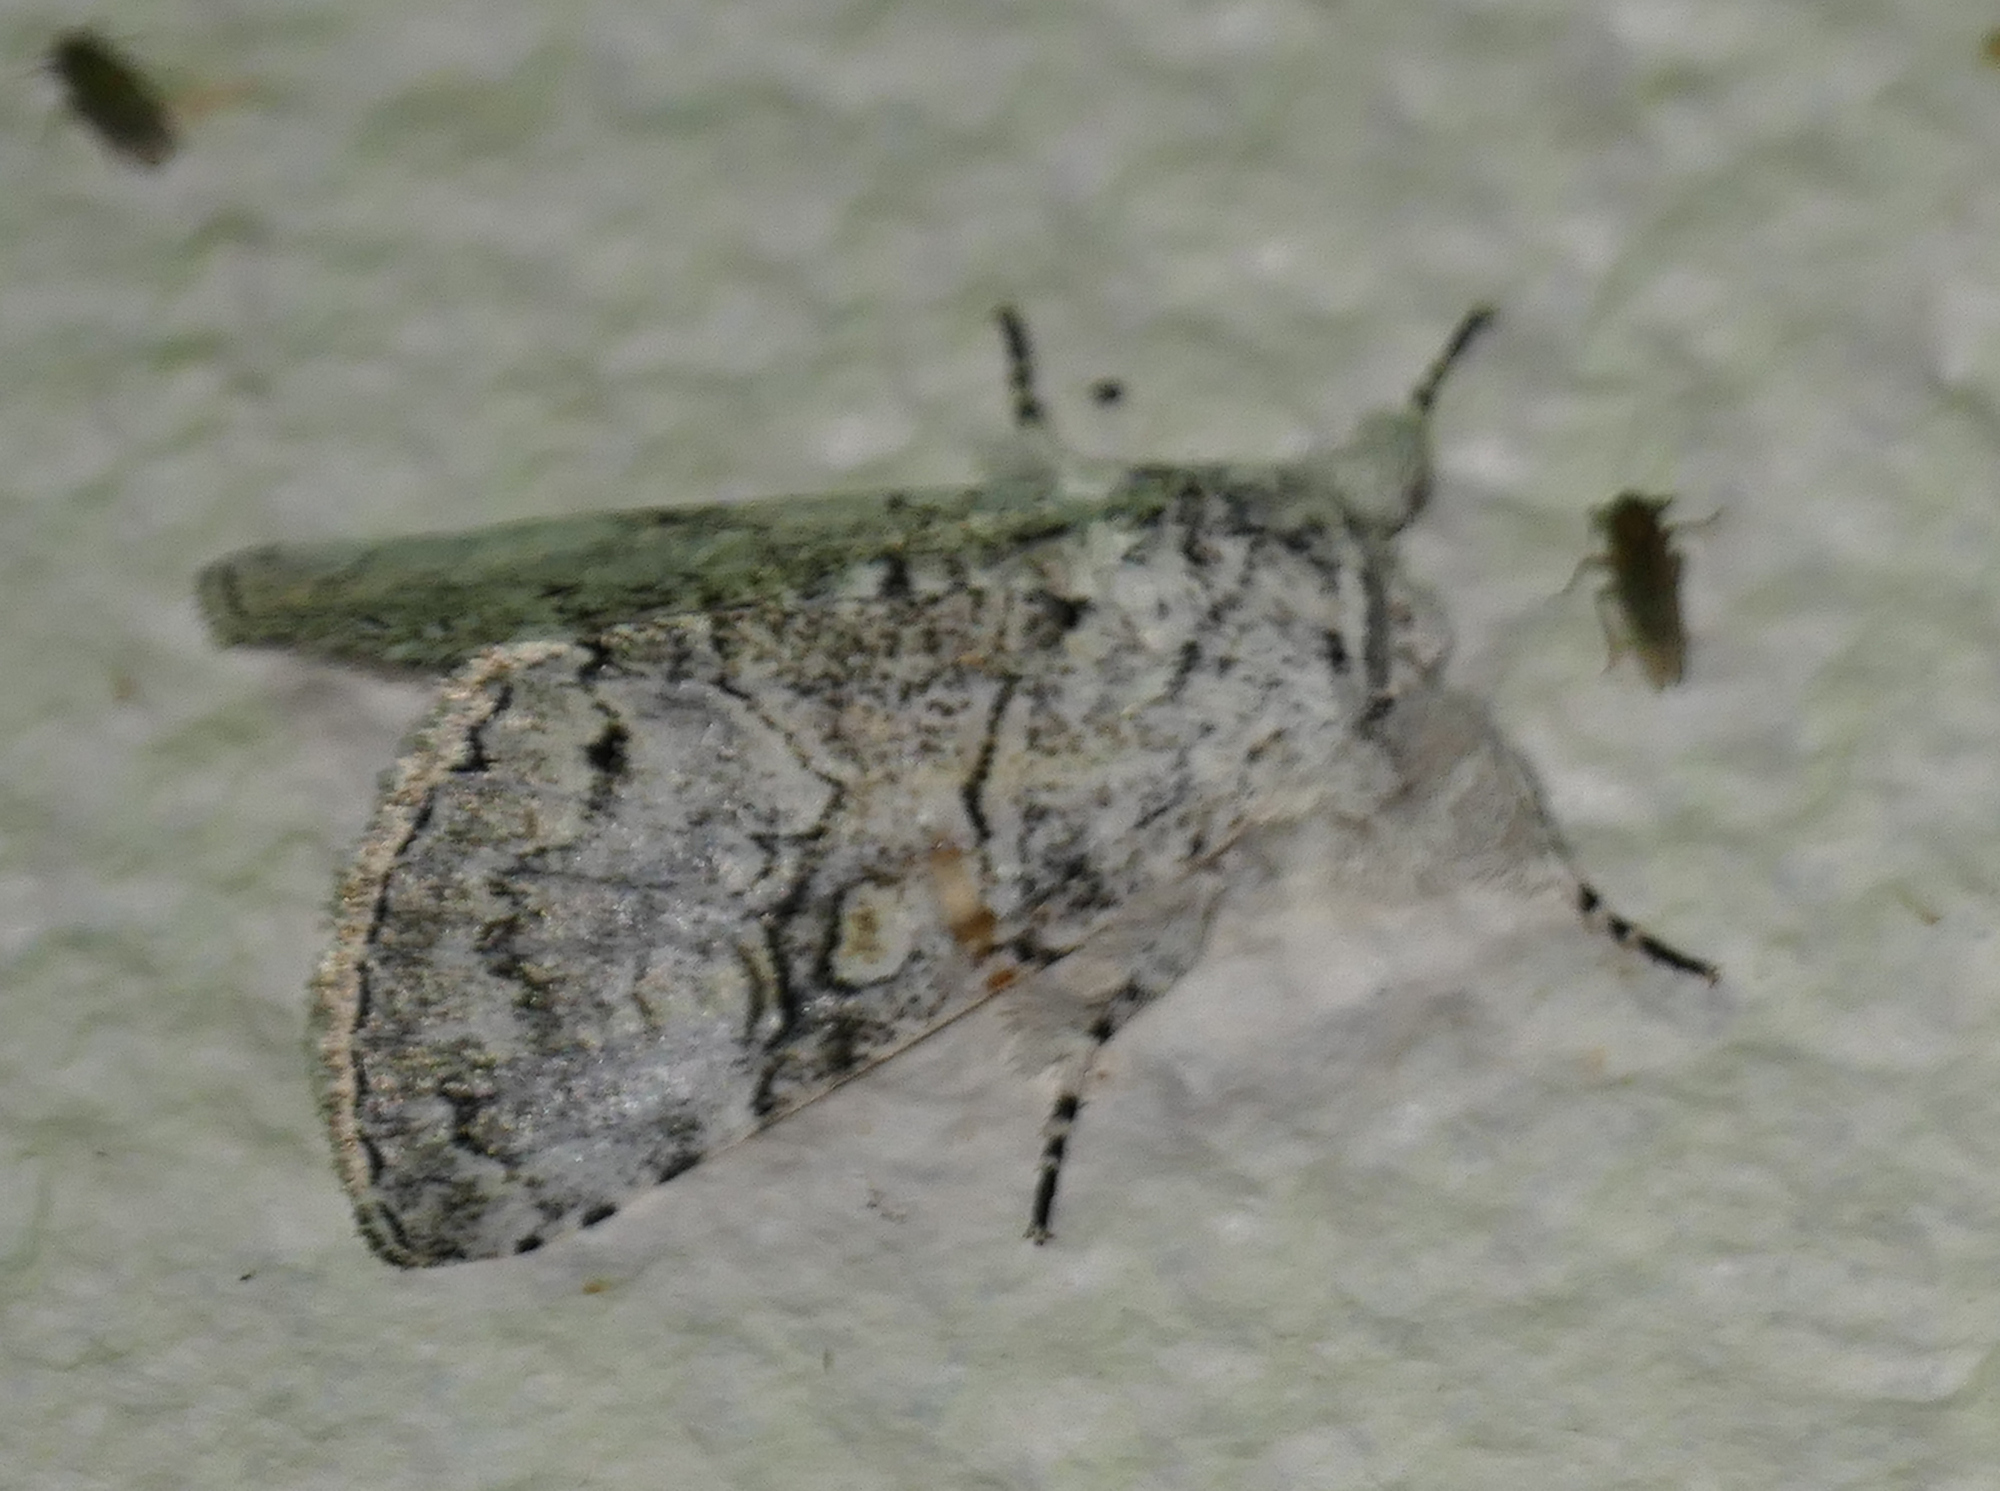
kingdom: Animalia
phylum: Arthropoda
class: Insecta
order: Lepidoptera
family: Noctuidae
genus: Charadra
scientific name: Charadra dispulsa
